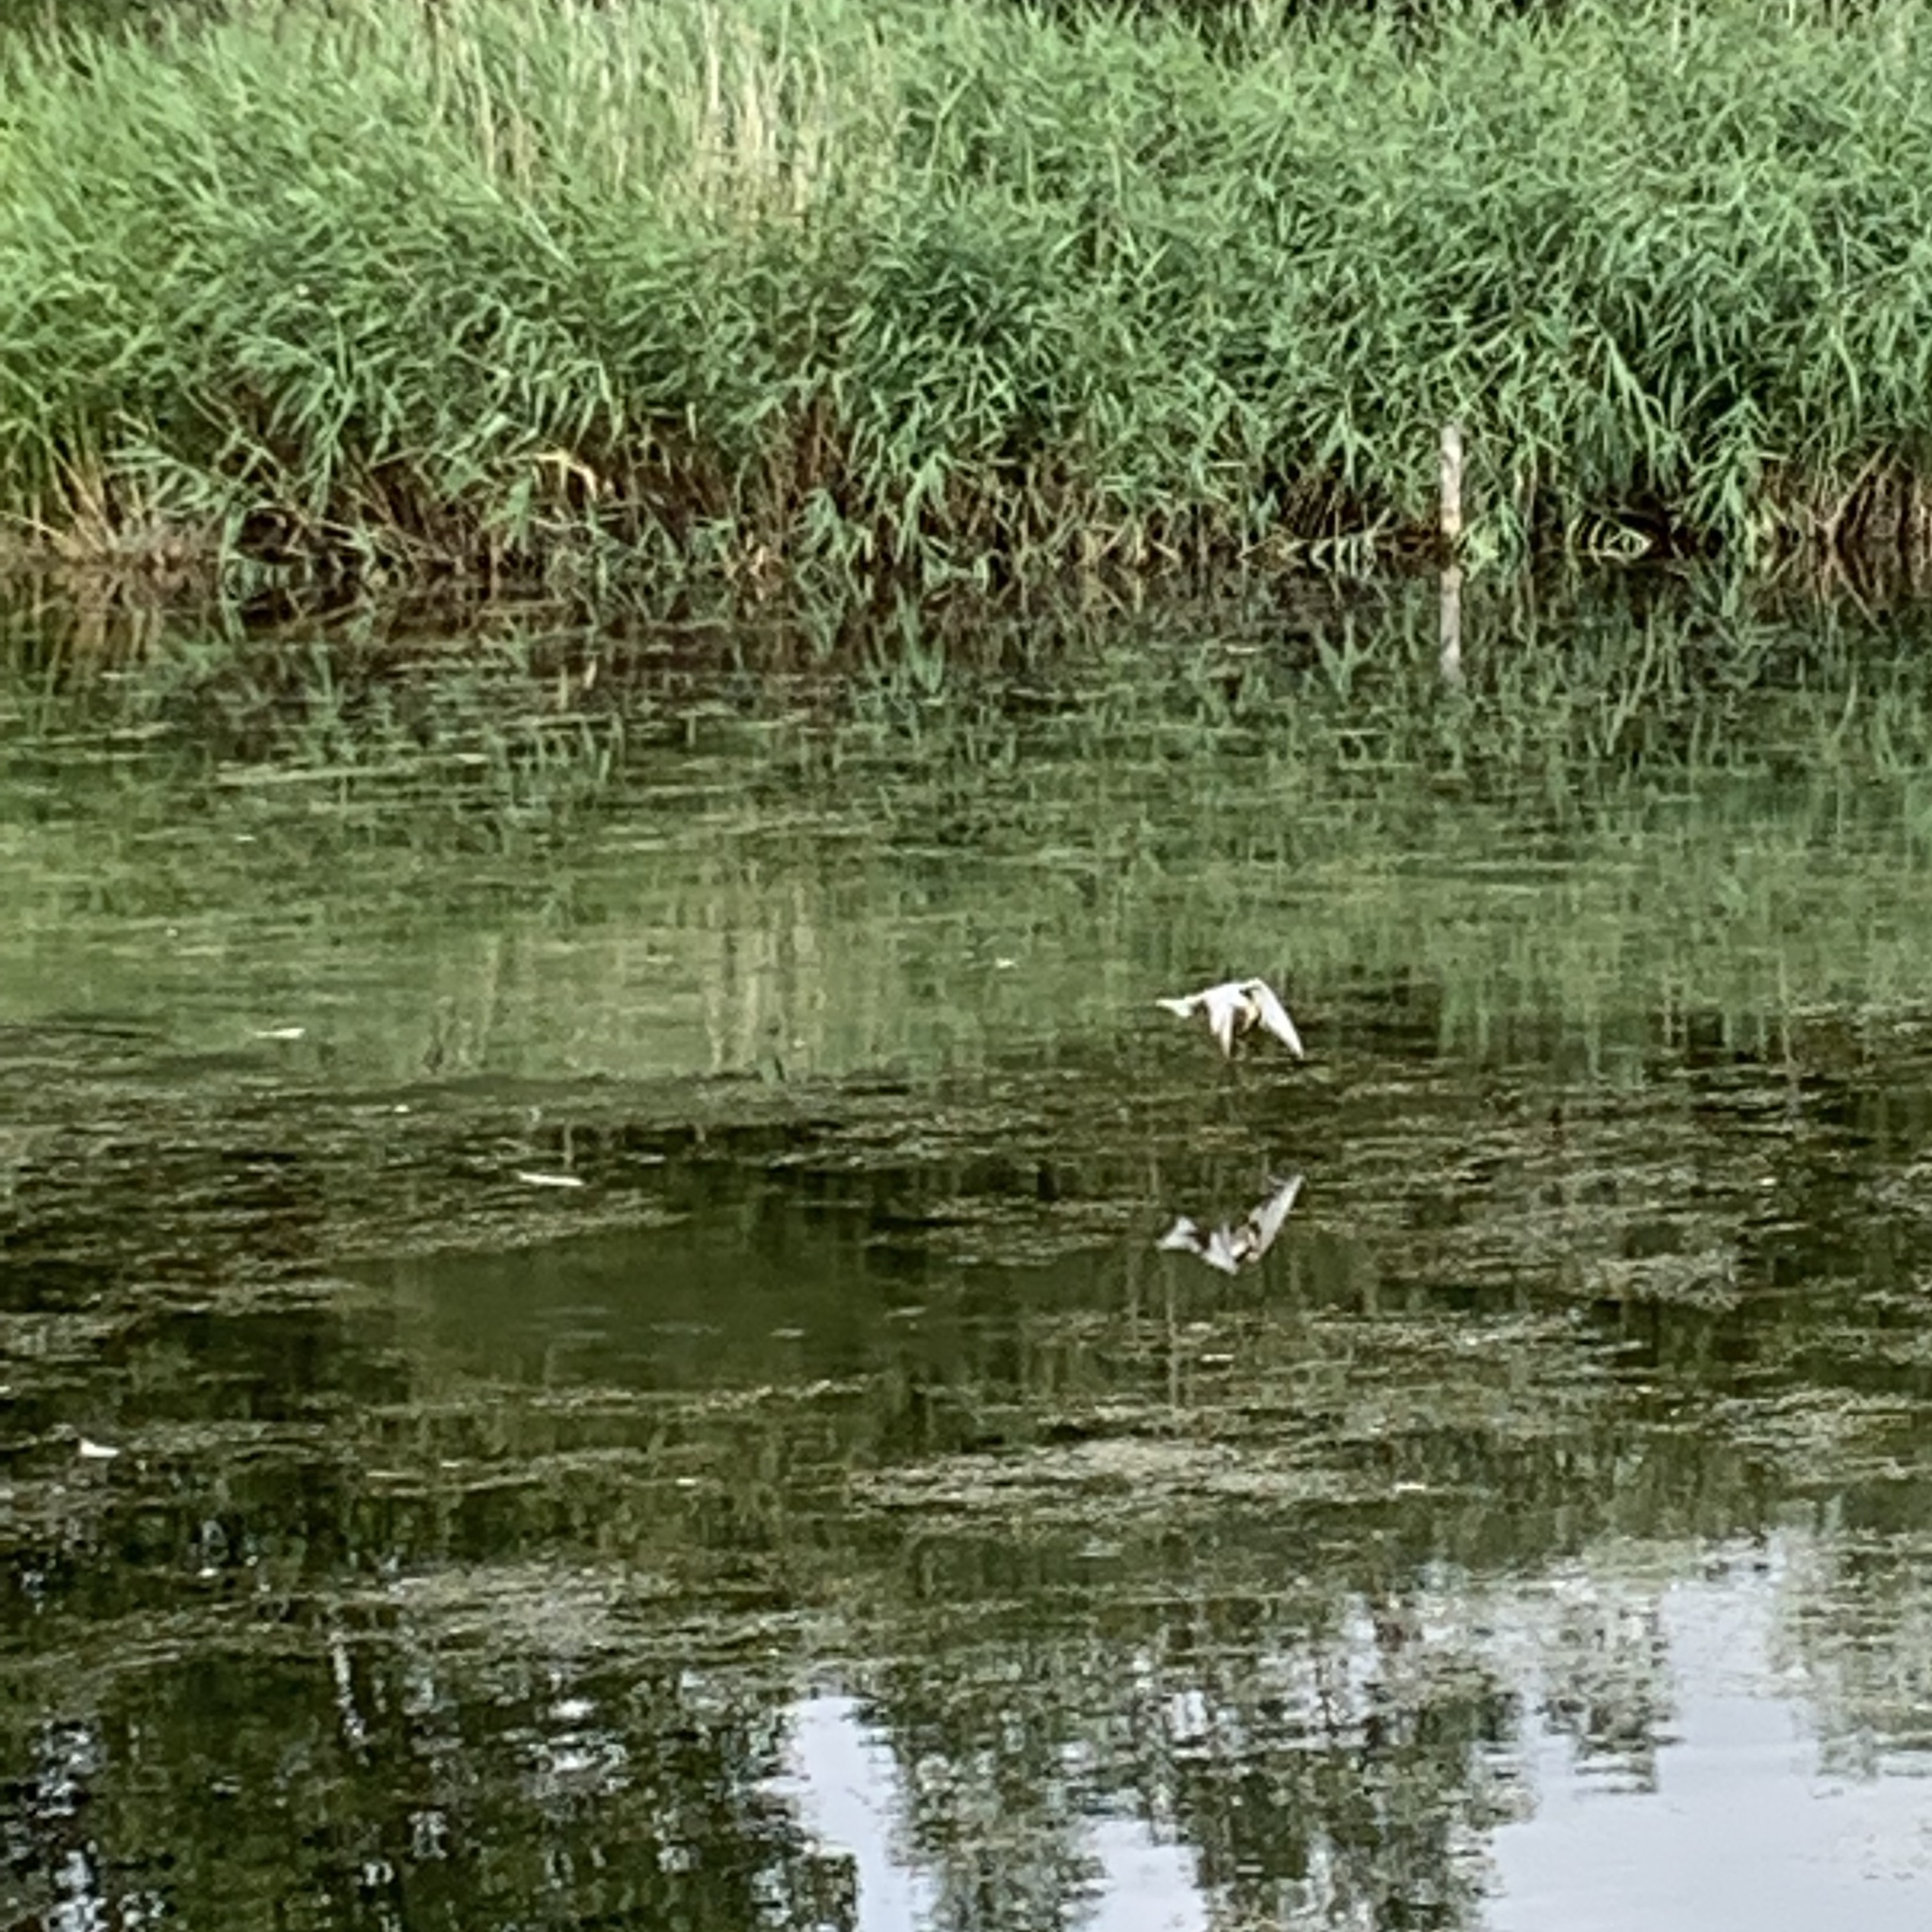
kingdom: Animalia
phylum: Chordata
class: Aves
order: Charadriiformes
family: Laridae
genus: Sterna
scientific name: Sterna hirundo
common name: Common tern
